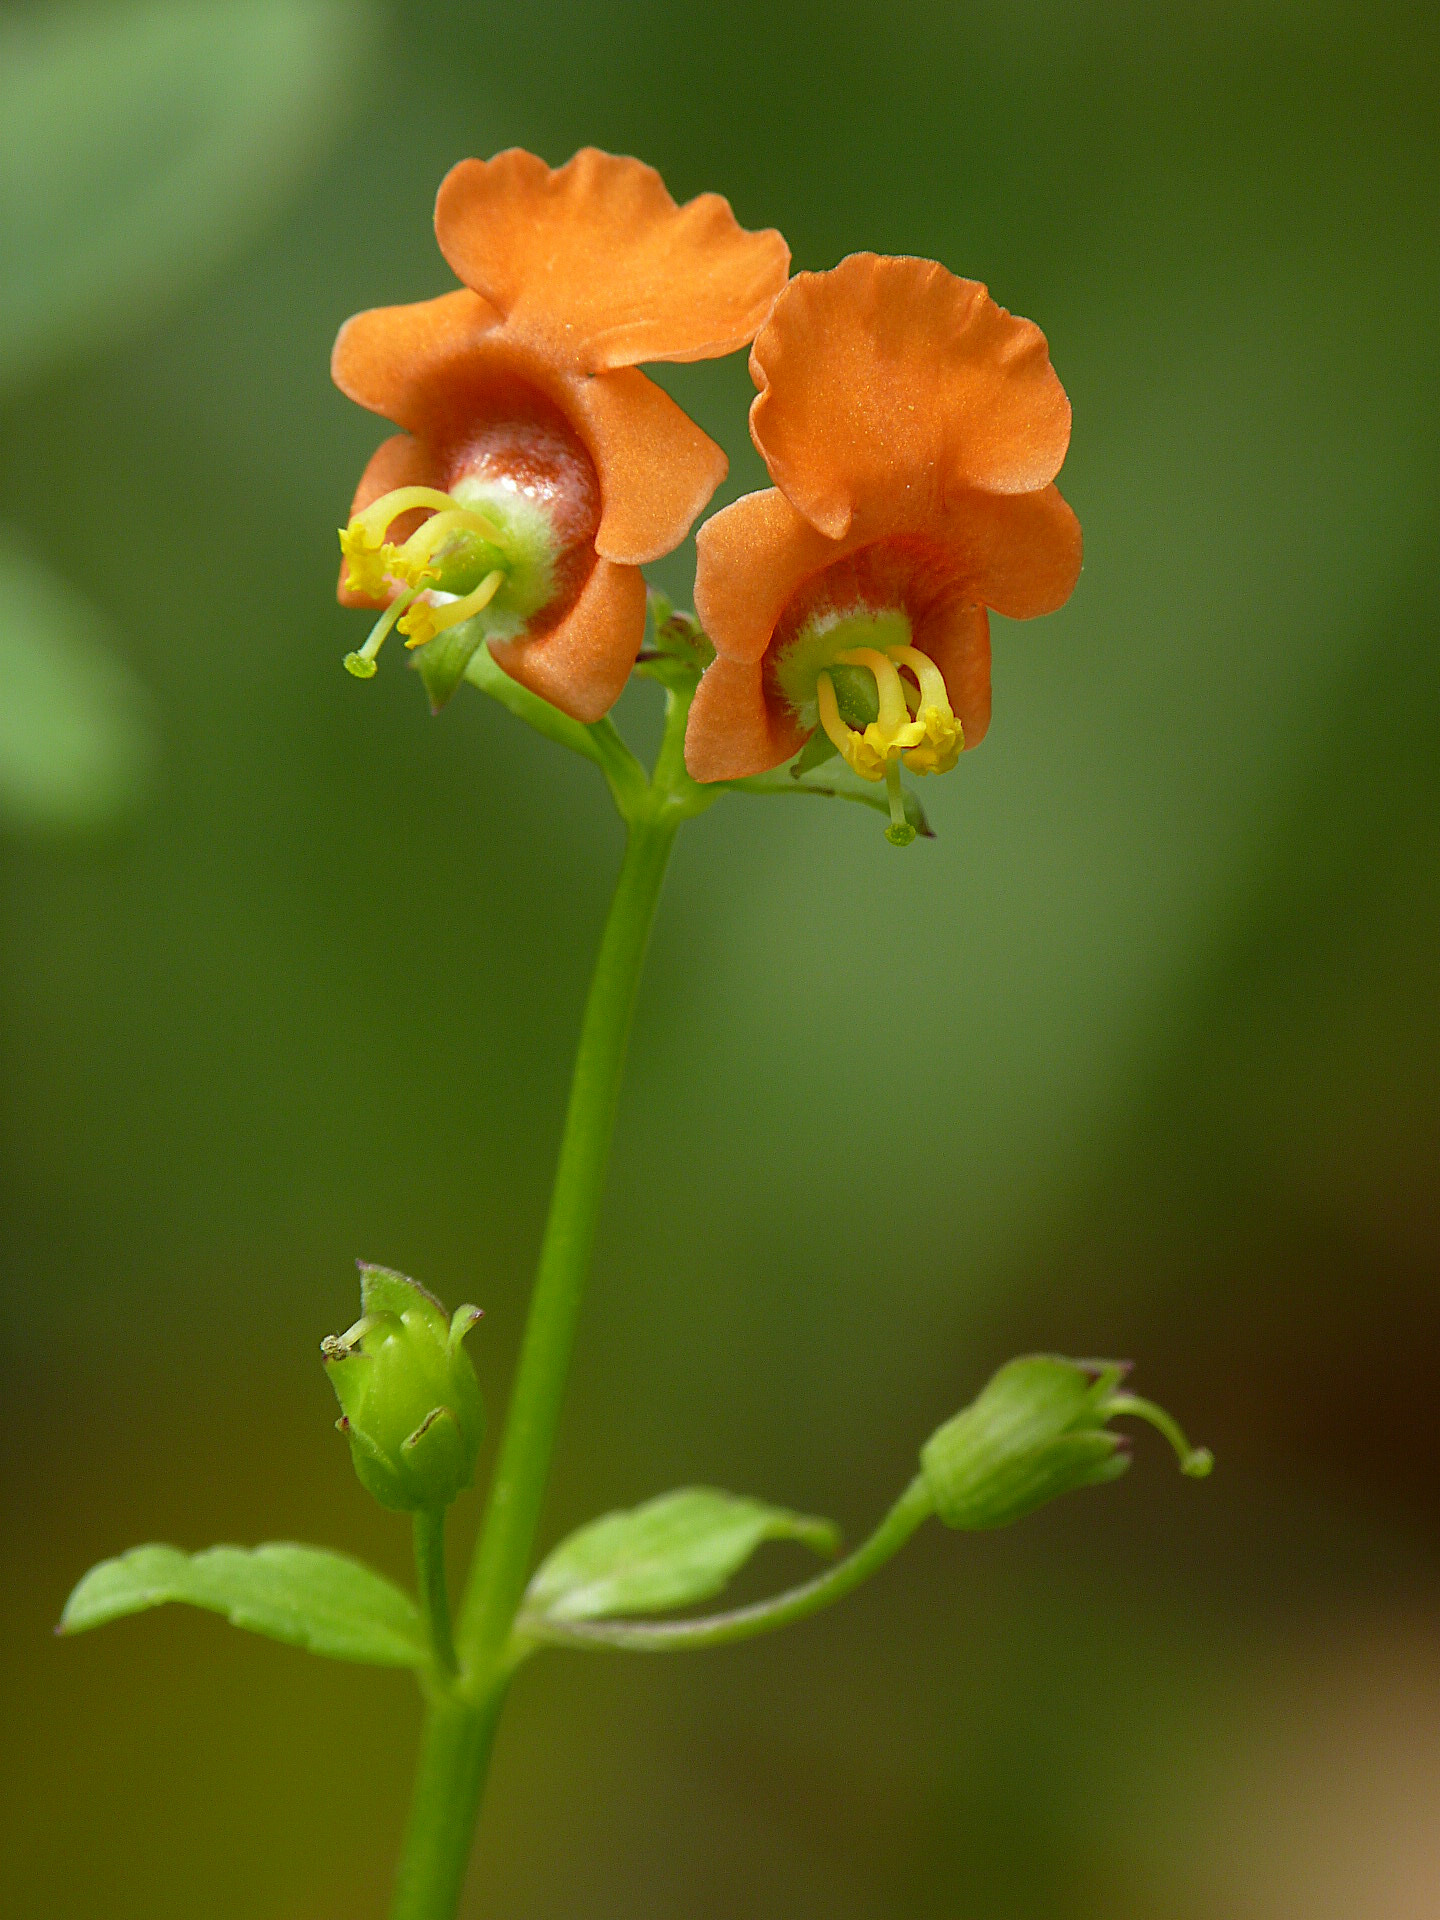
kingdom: Plantae
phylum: Tracheophyta
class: Magnoliopsida
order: Lamiales
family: Scrophulariaceae
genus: Alonsoa
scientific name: Alonsoa meridionalis
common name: Maskflower
